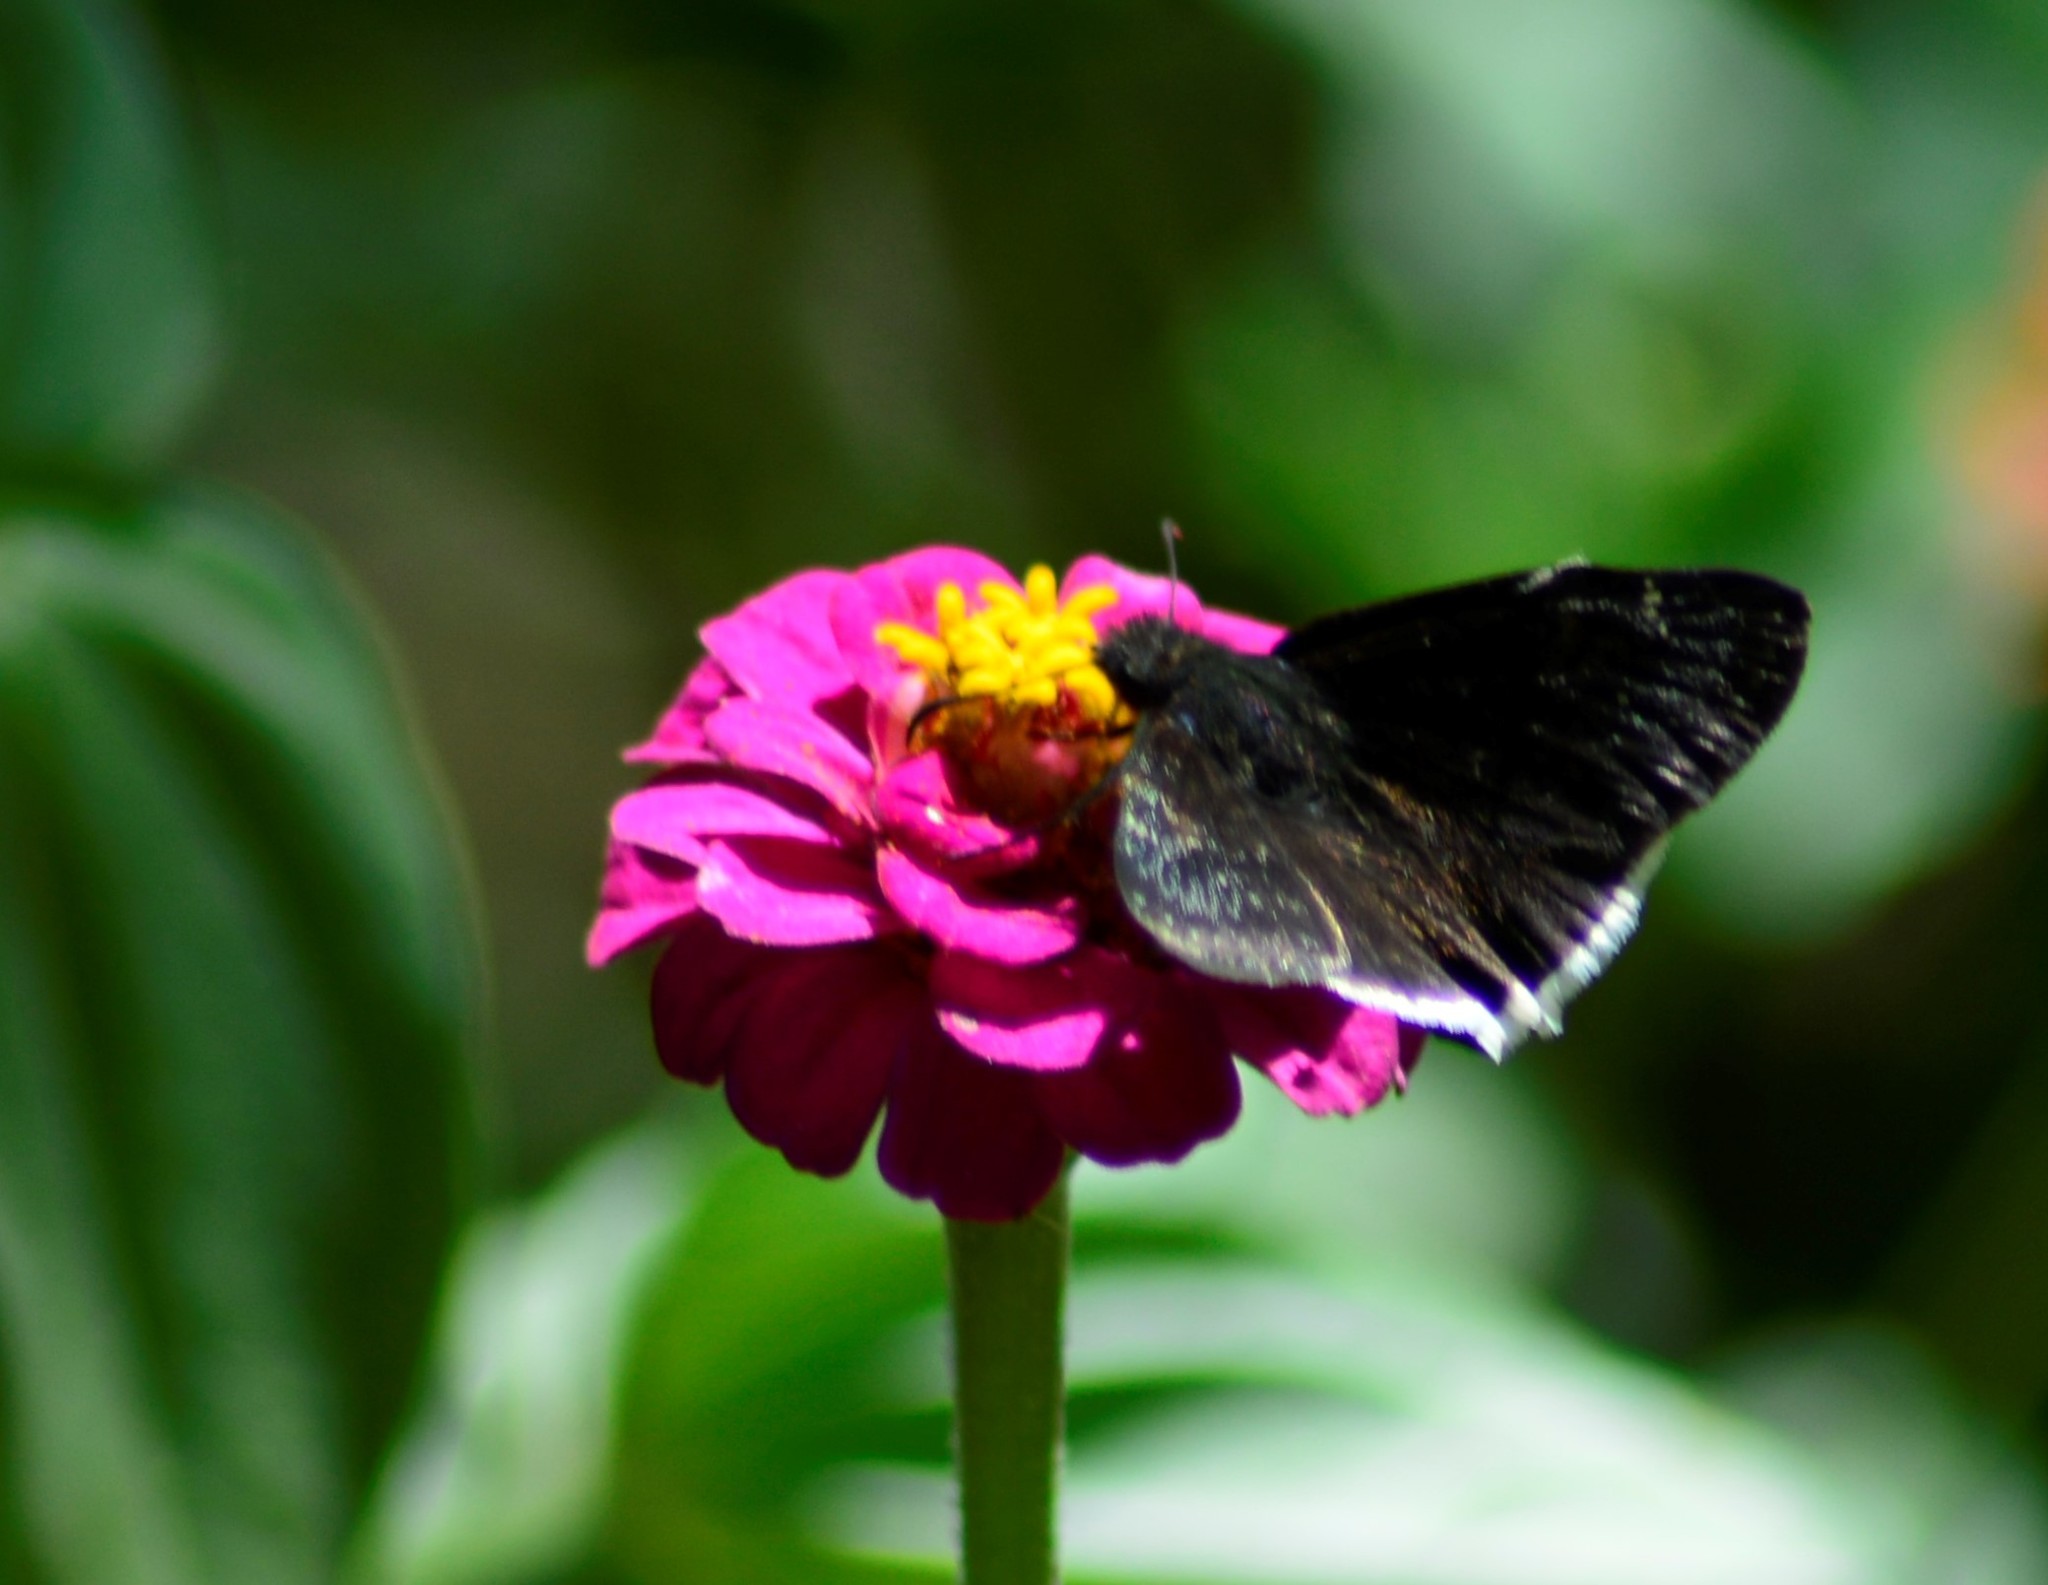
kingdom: Animalia
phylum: Arthropoda
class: Insecta
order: Lepidoptera
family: Hesperiidae
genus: Erynnis
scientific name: Erynnis funeralis
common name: Funereal duskywing
